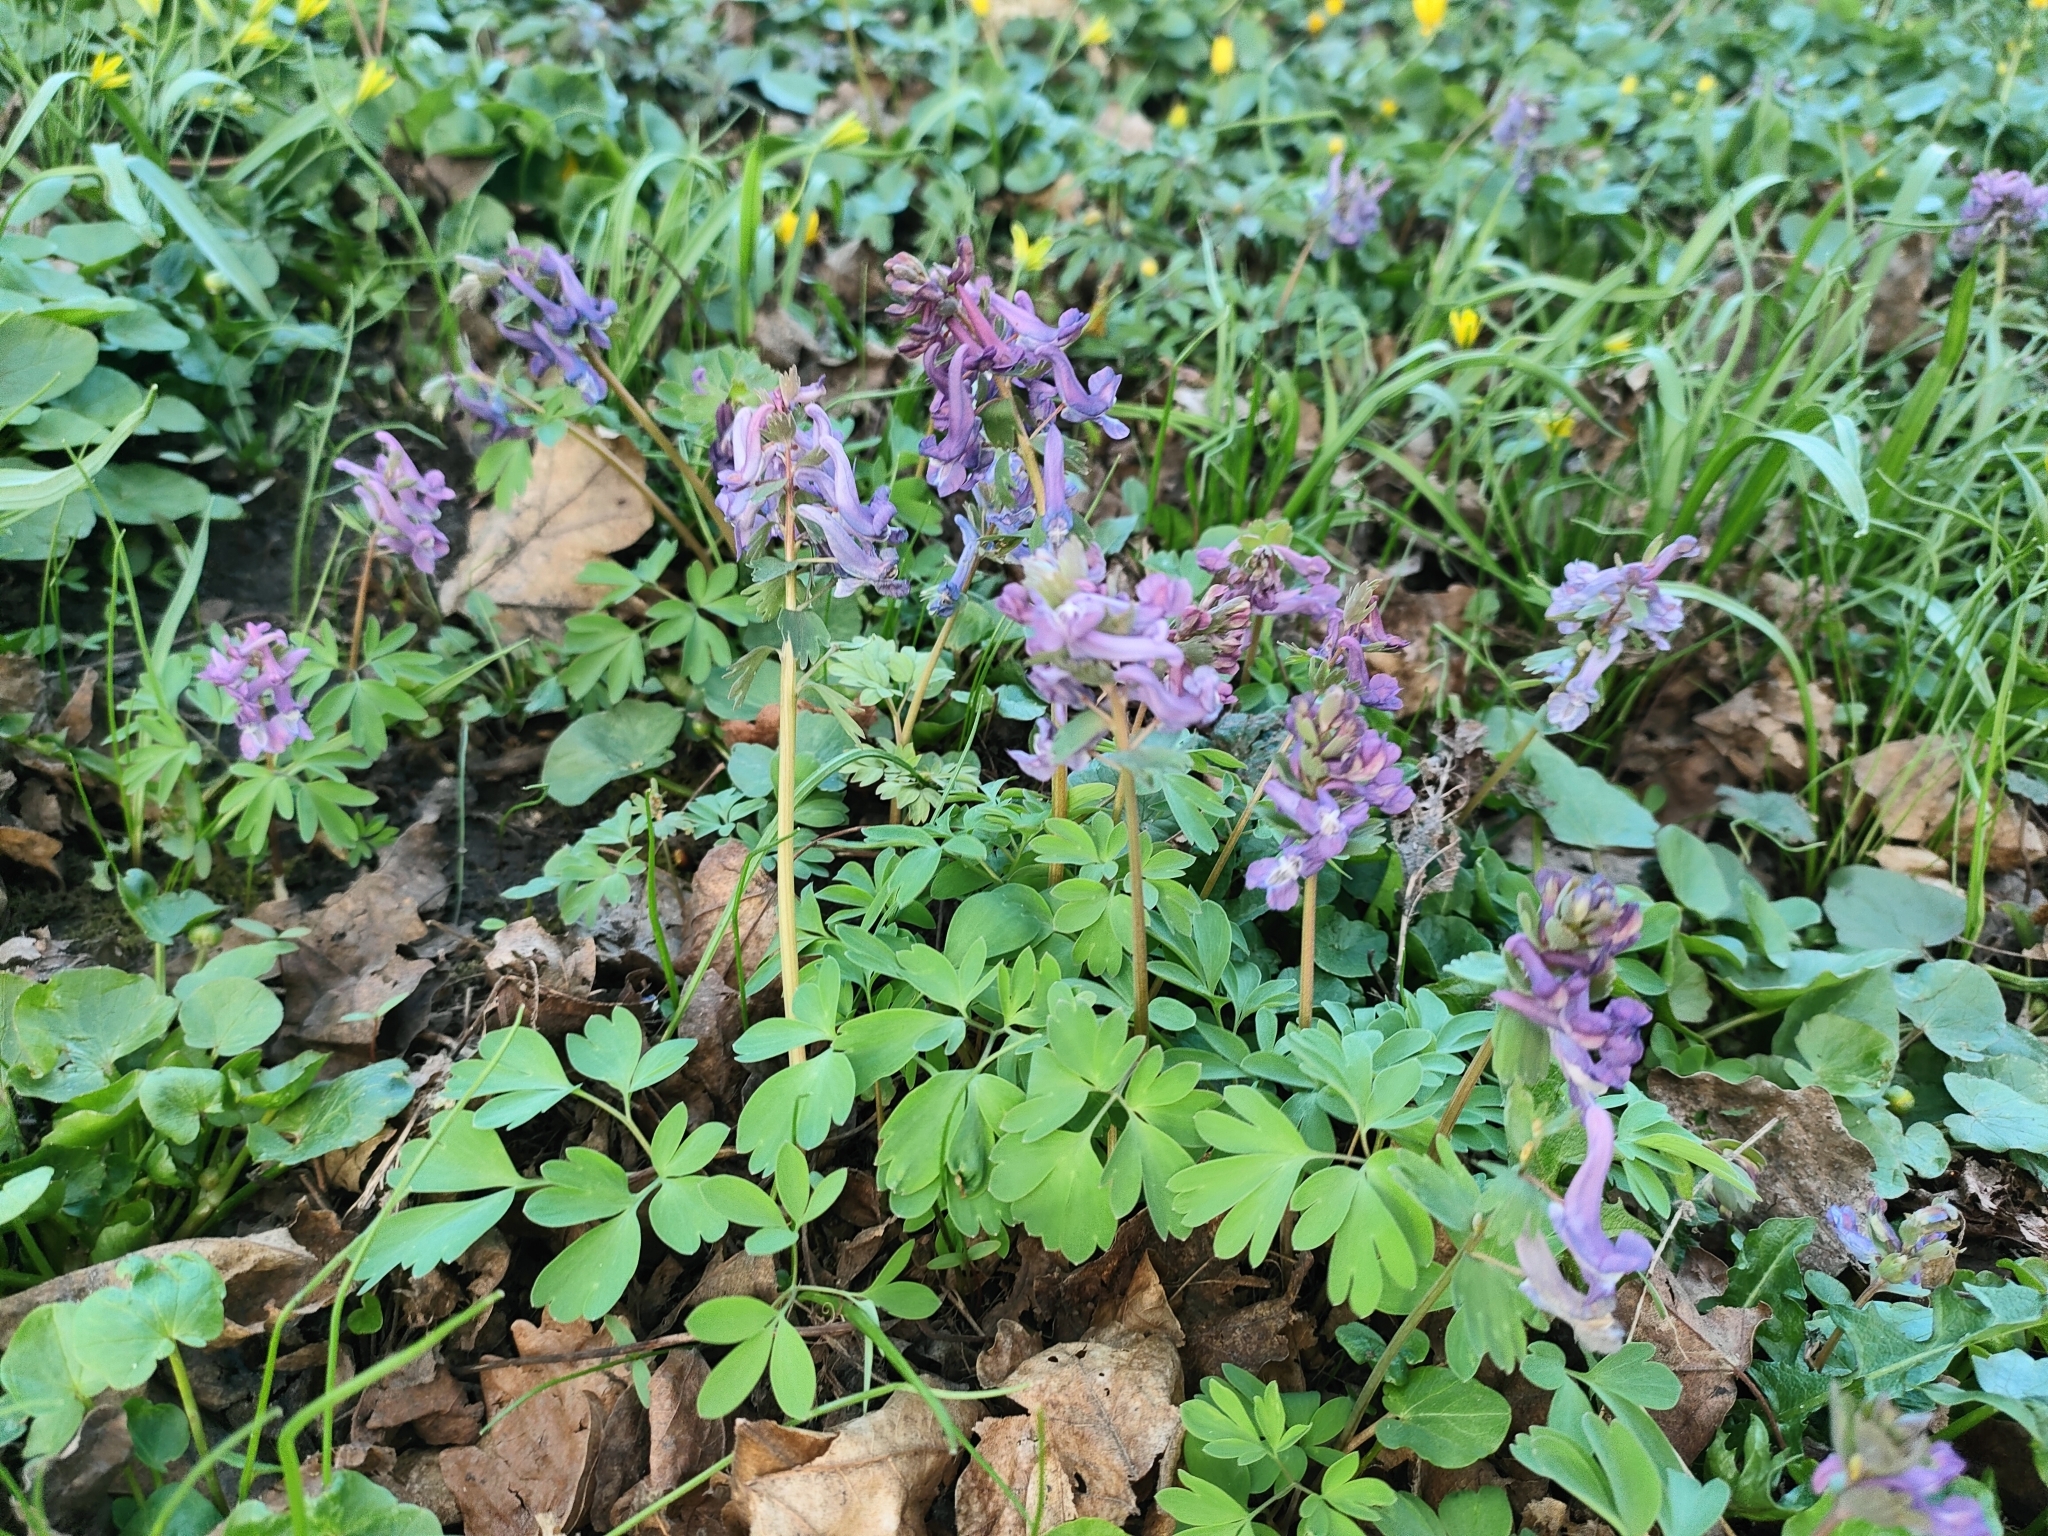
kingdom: Plantae
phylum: Tracheophyta
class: Magnoliopsida
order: Ranunculales
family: Papaveraceae
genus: Corydalis
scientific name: Corydalis solida
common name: Bird-in-a-bush
